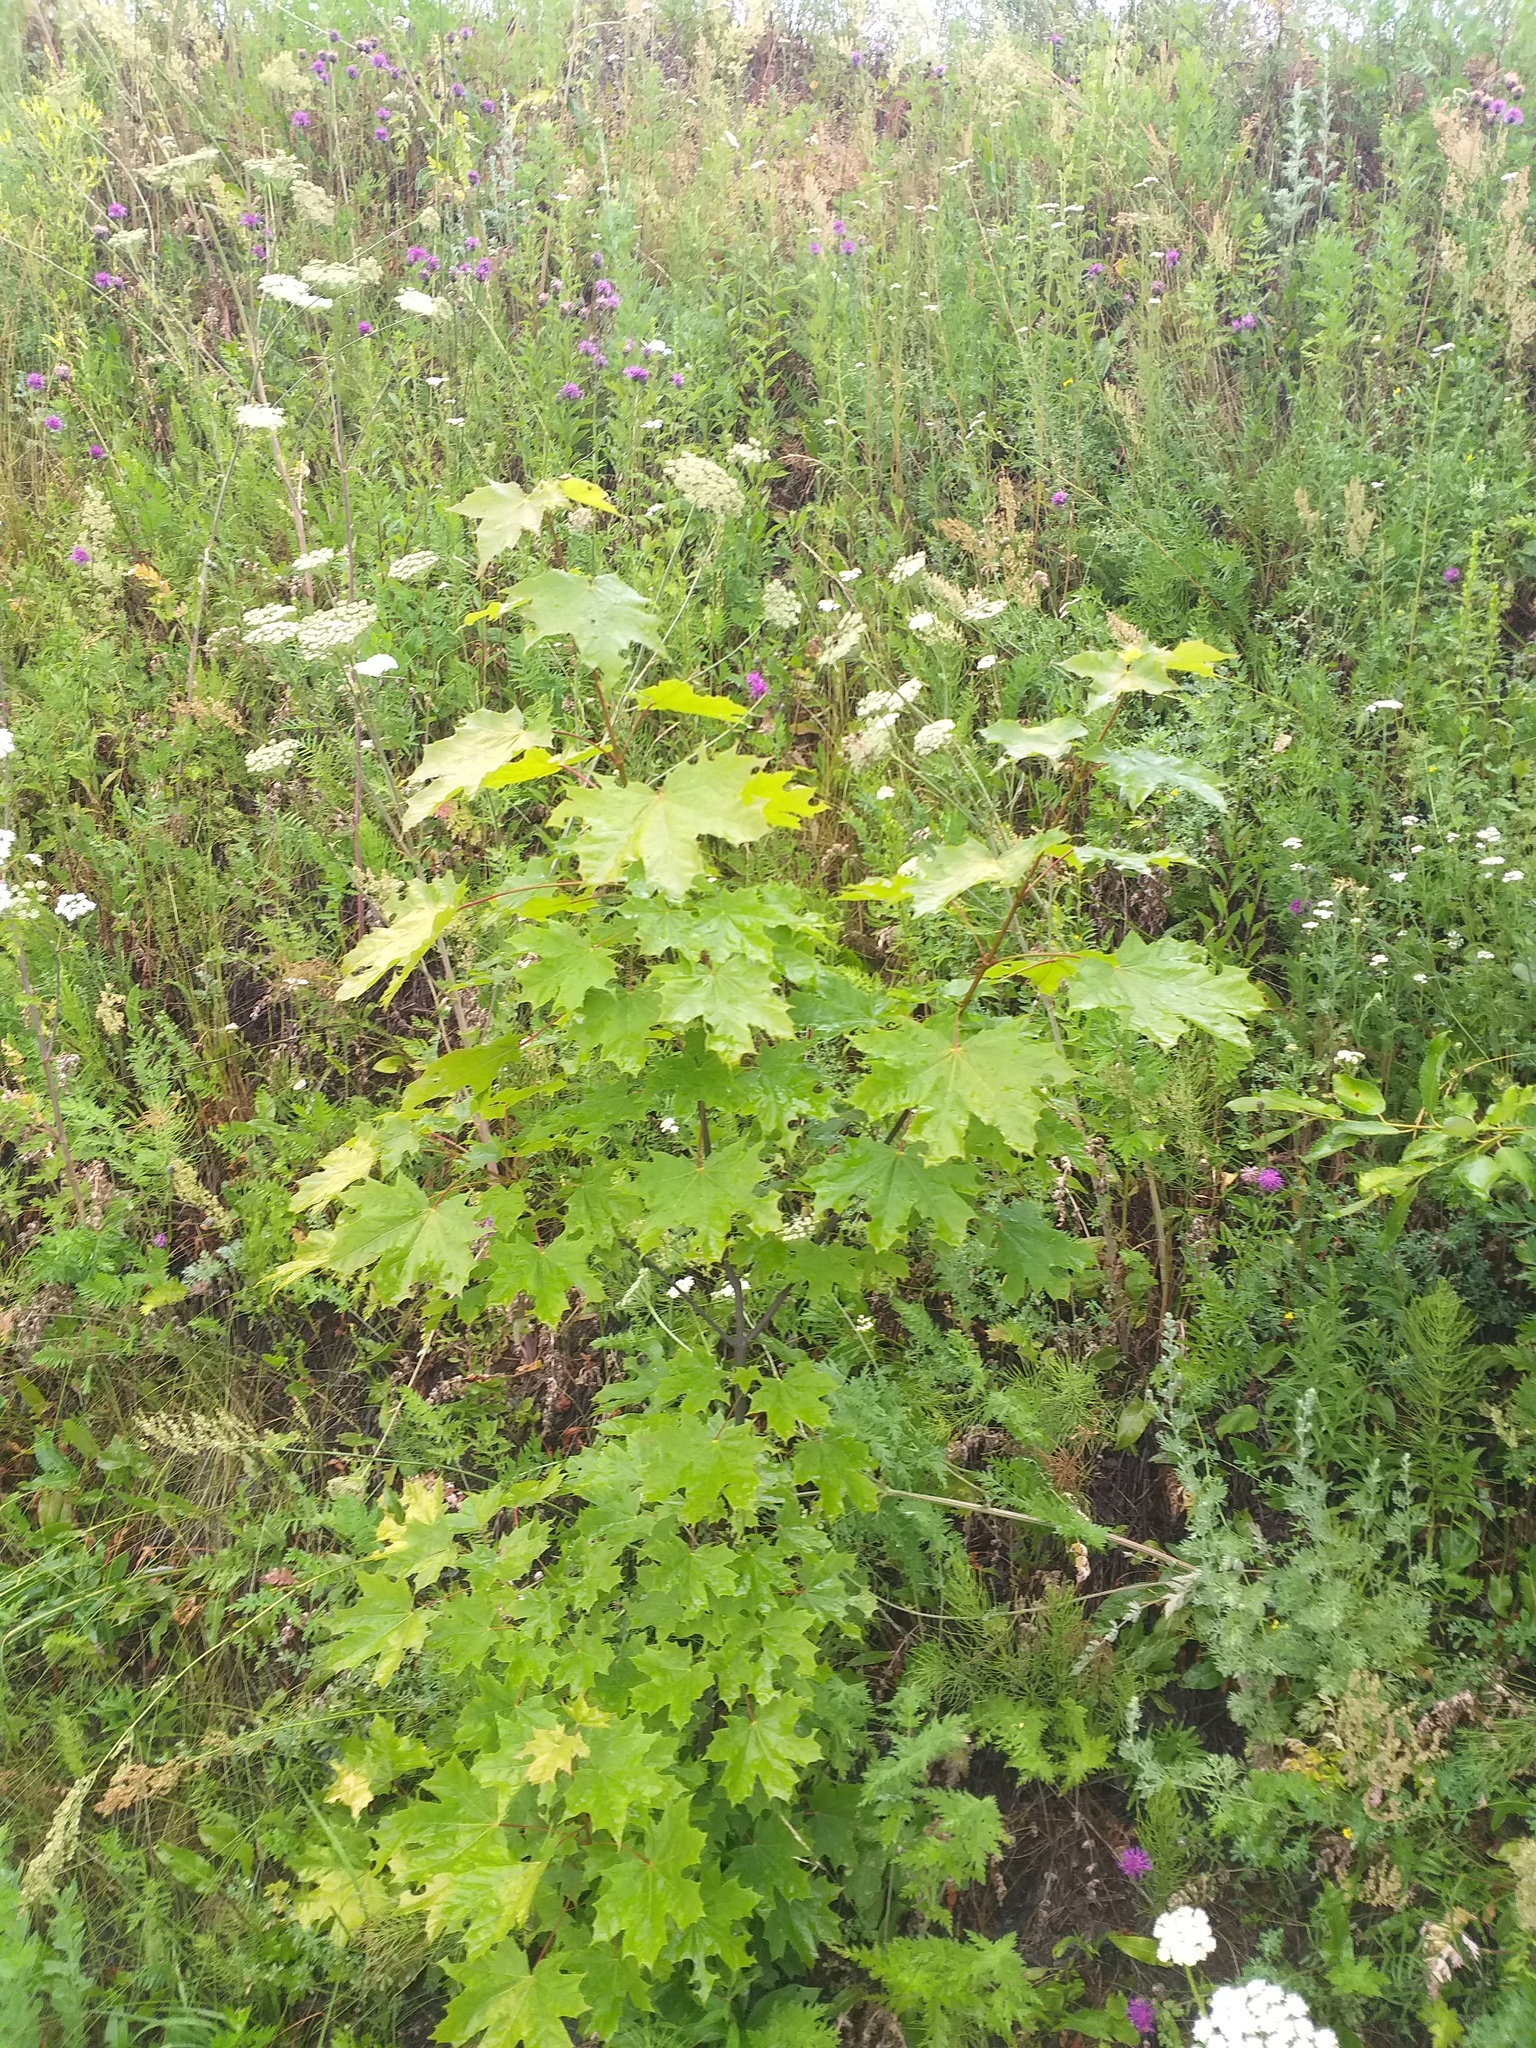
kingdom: Plantae
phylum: Tracheophyta
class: Magnoliopsida
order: Sapindales
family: Sapindaceae
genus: Acer
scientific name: Acer platanoides
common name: Norway maple
